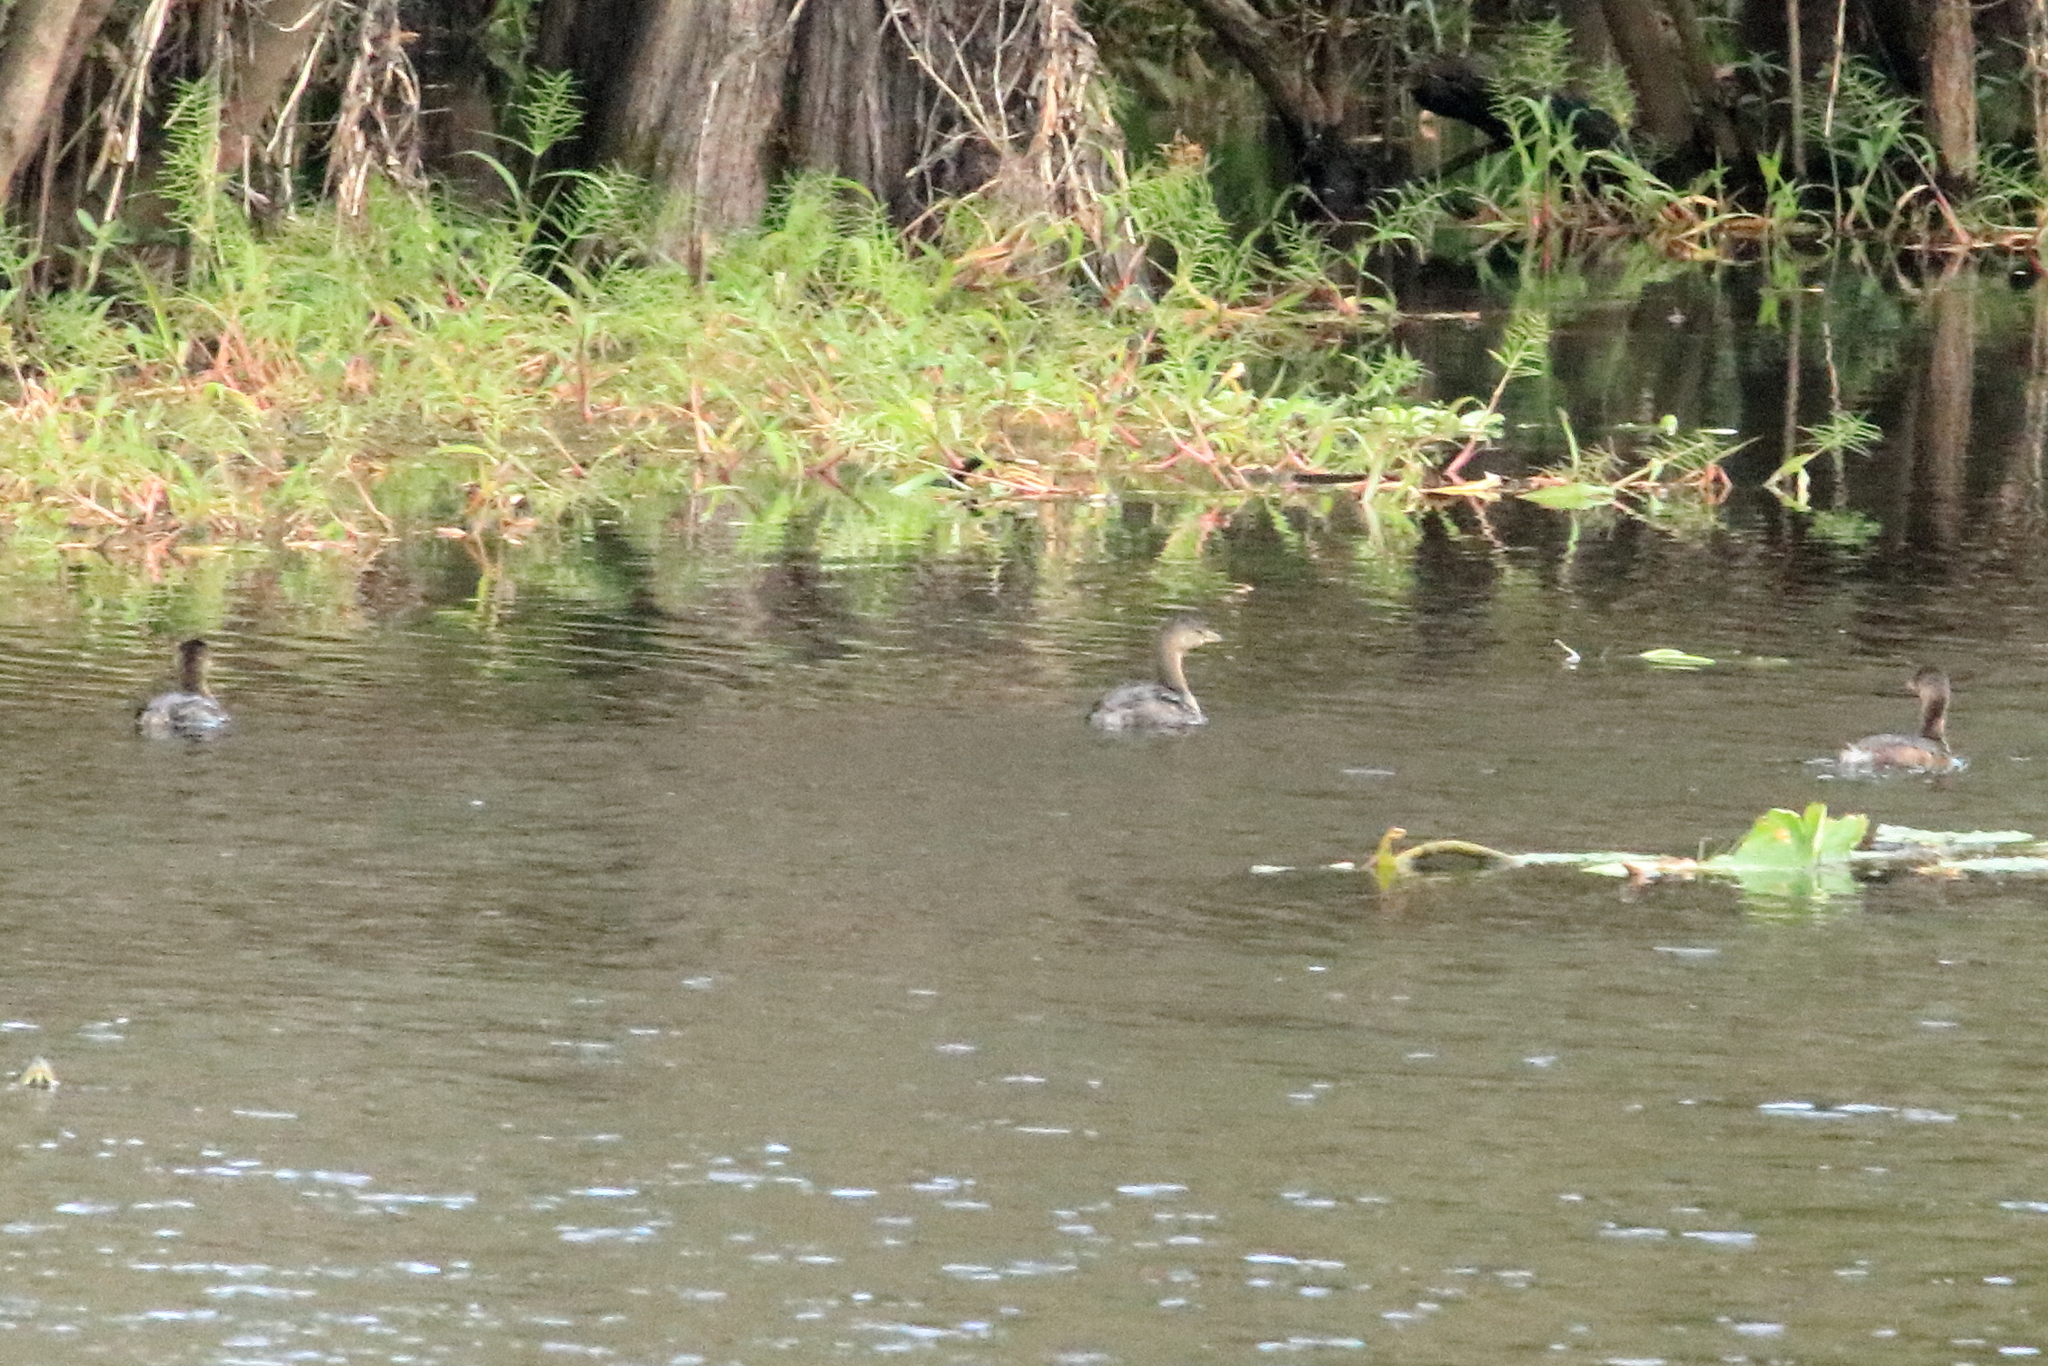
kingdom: Animalia
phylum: Chordata
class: Aves
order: Podicipediformes
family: Podicipedidae
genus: Podilymbus
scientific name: Podilymbus podiceps
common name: Pied-billed grebe
